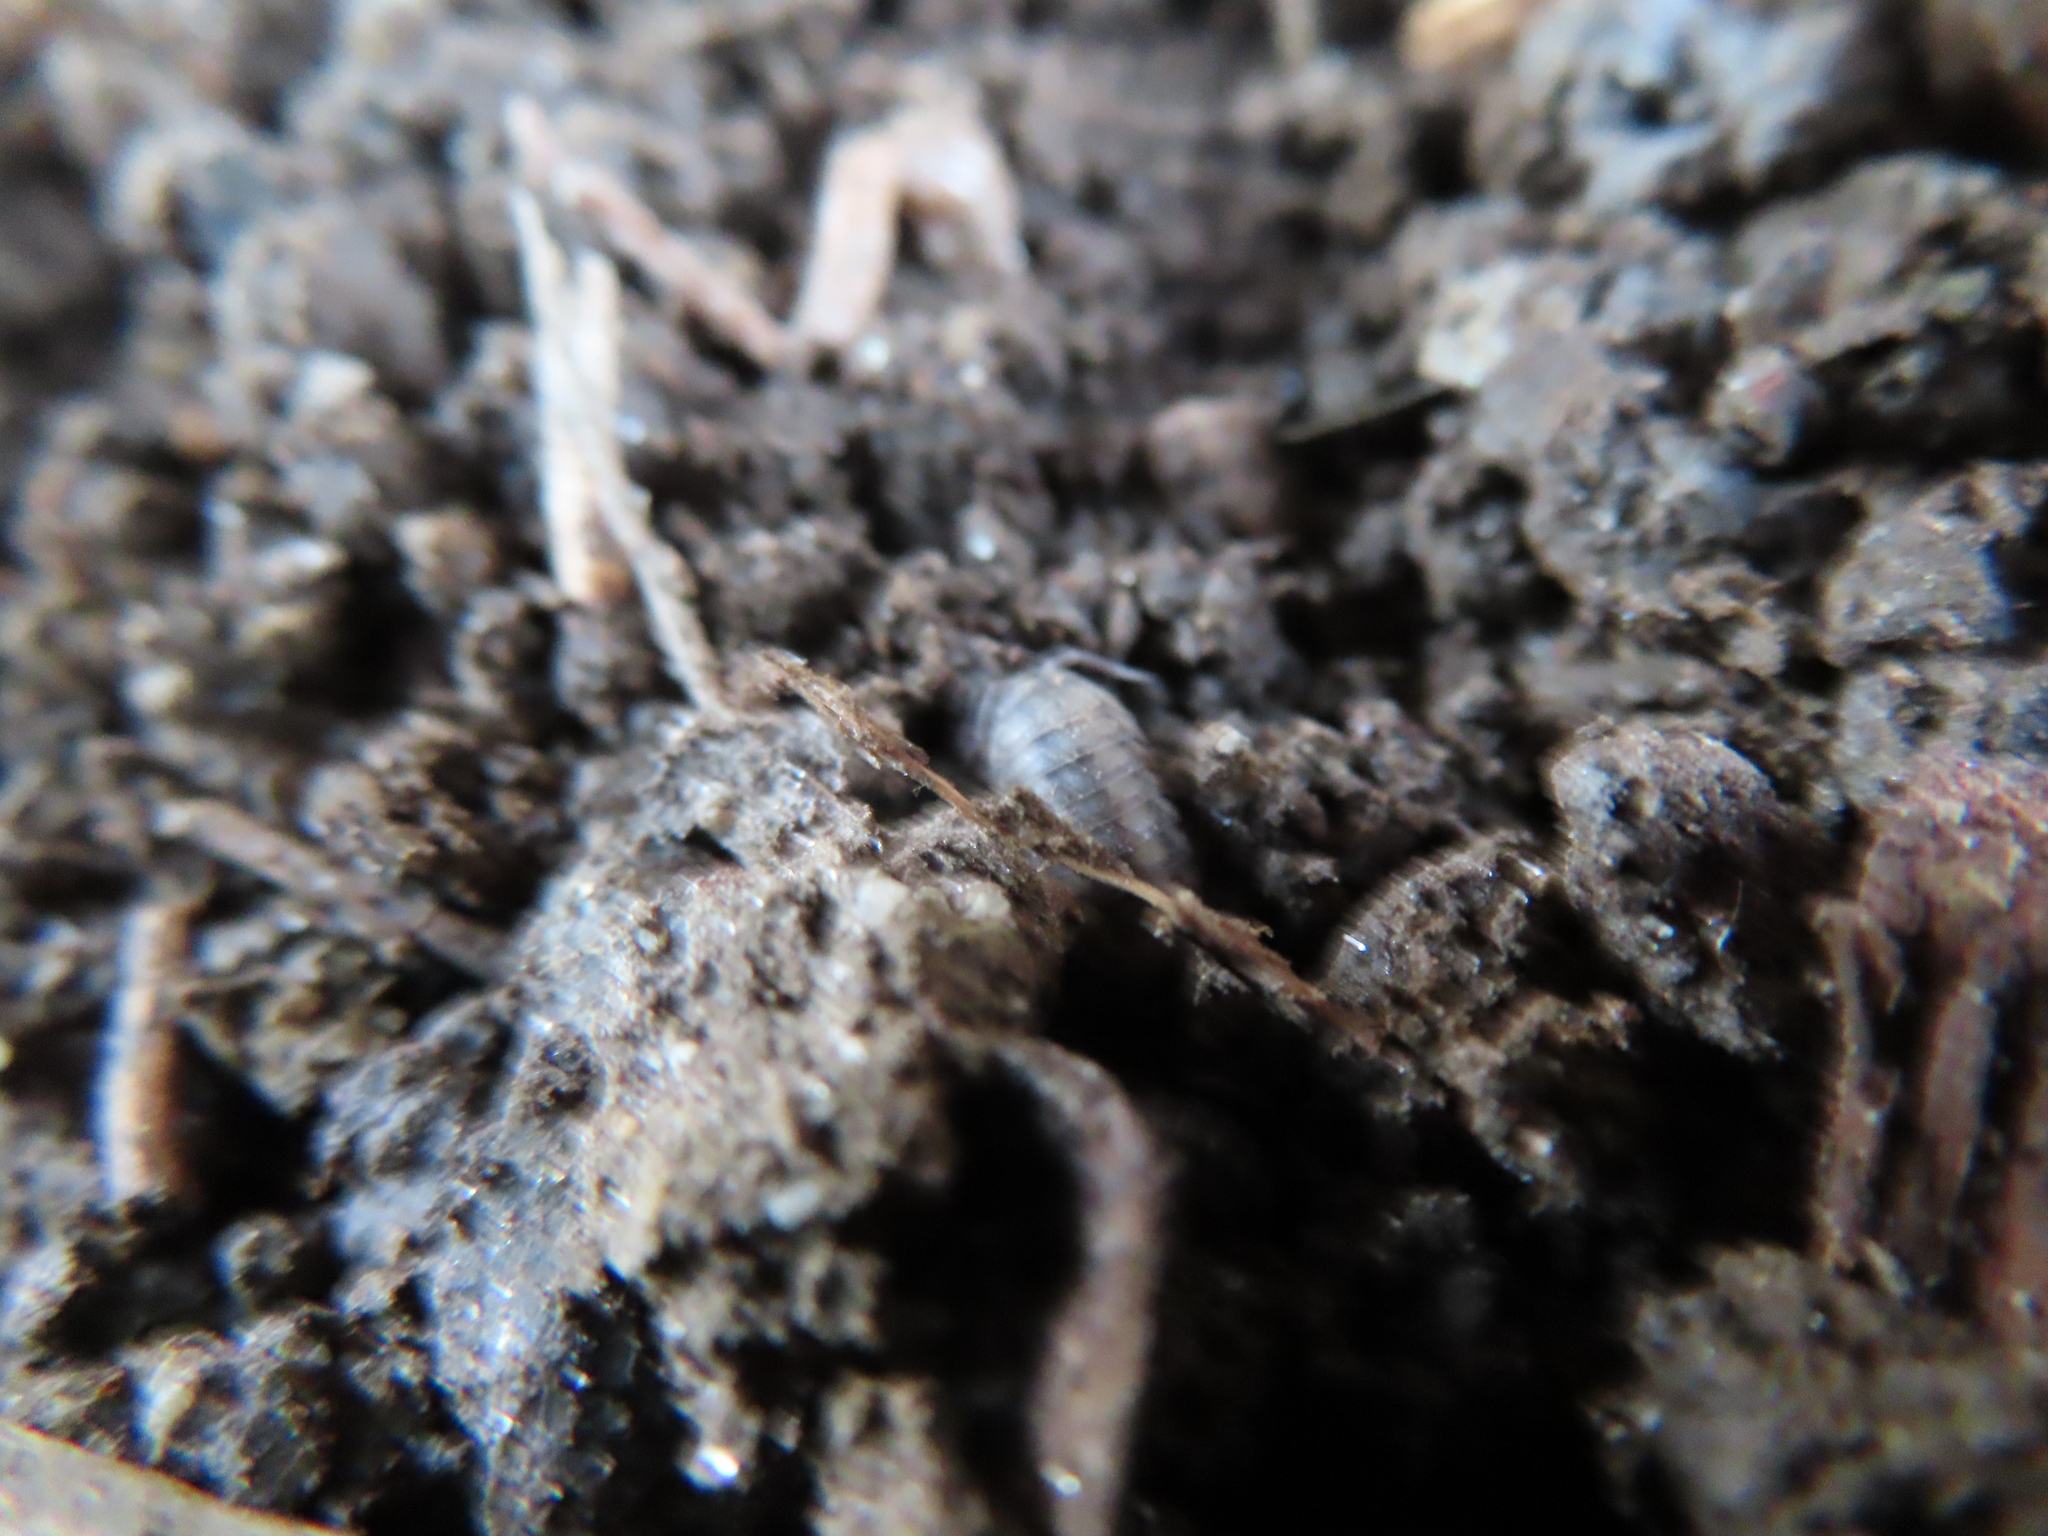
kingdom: Animalia
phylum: Arthropoda
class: Malacostraca
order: Isopoda
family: Armadillidiidae
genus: Armadillidium
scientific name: Armadillidium nasatum
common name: Isopod
